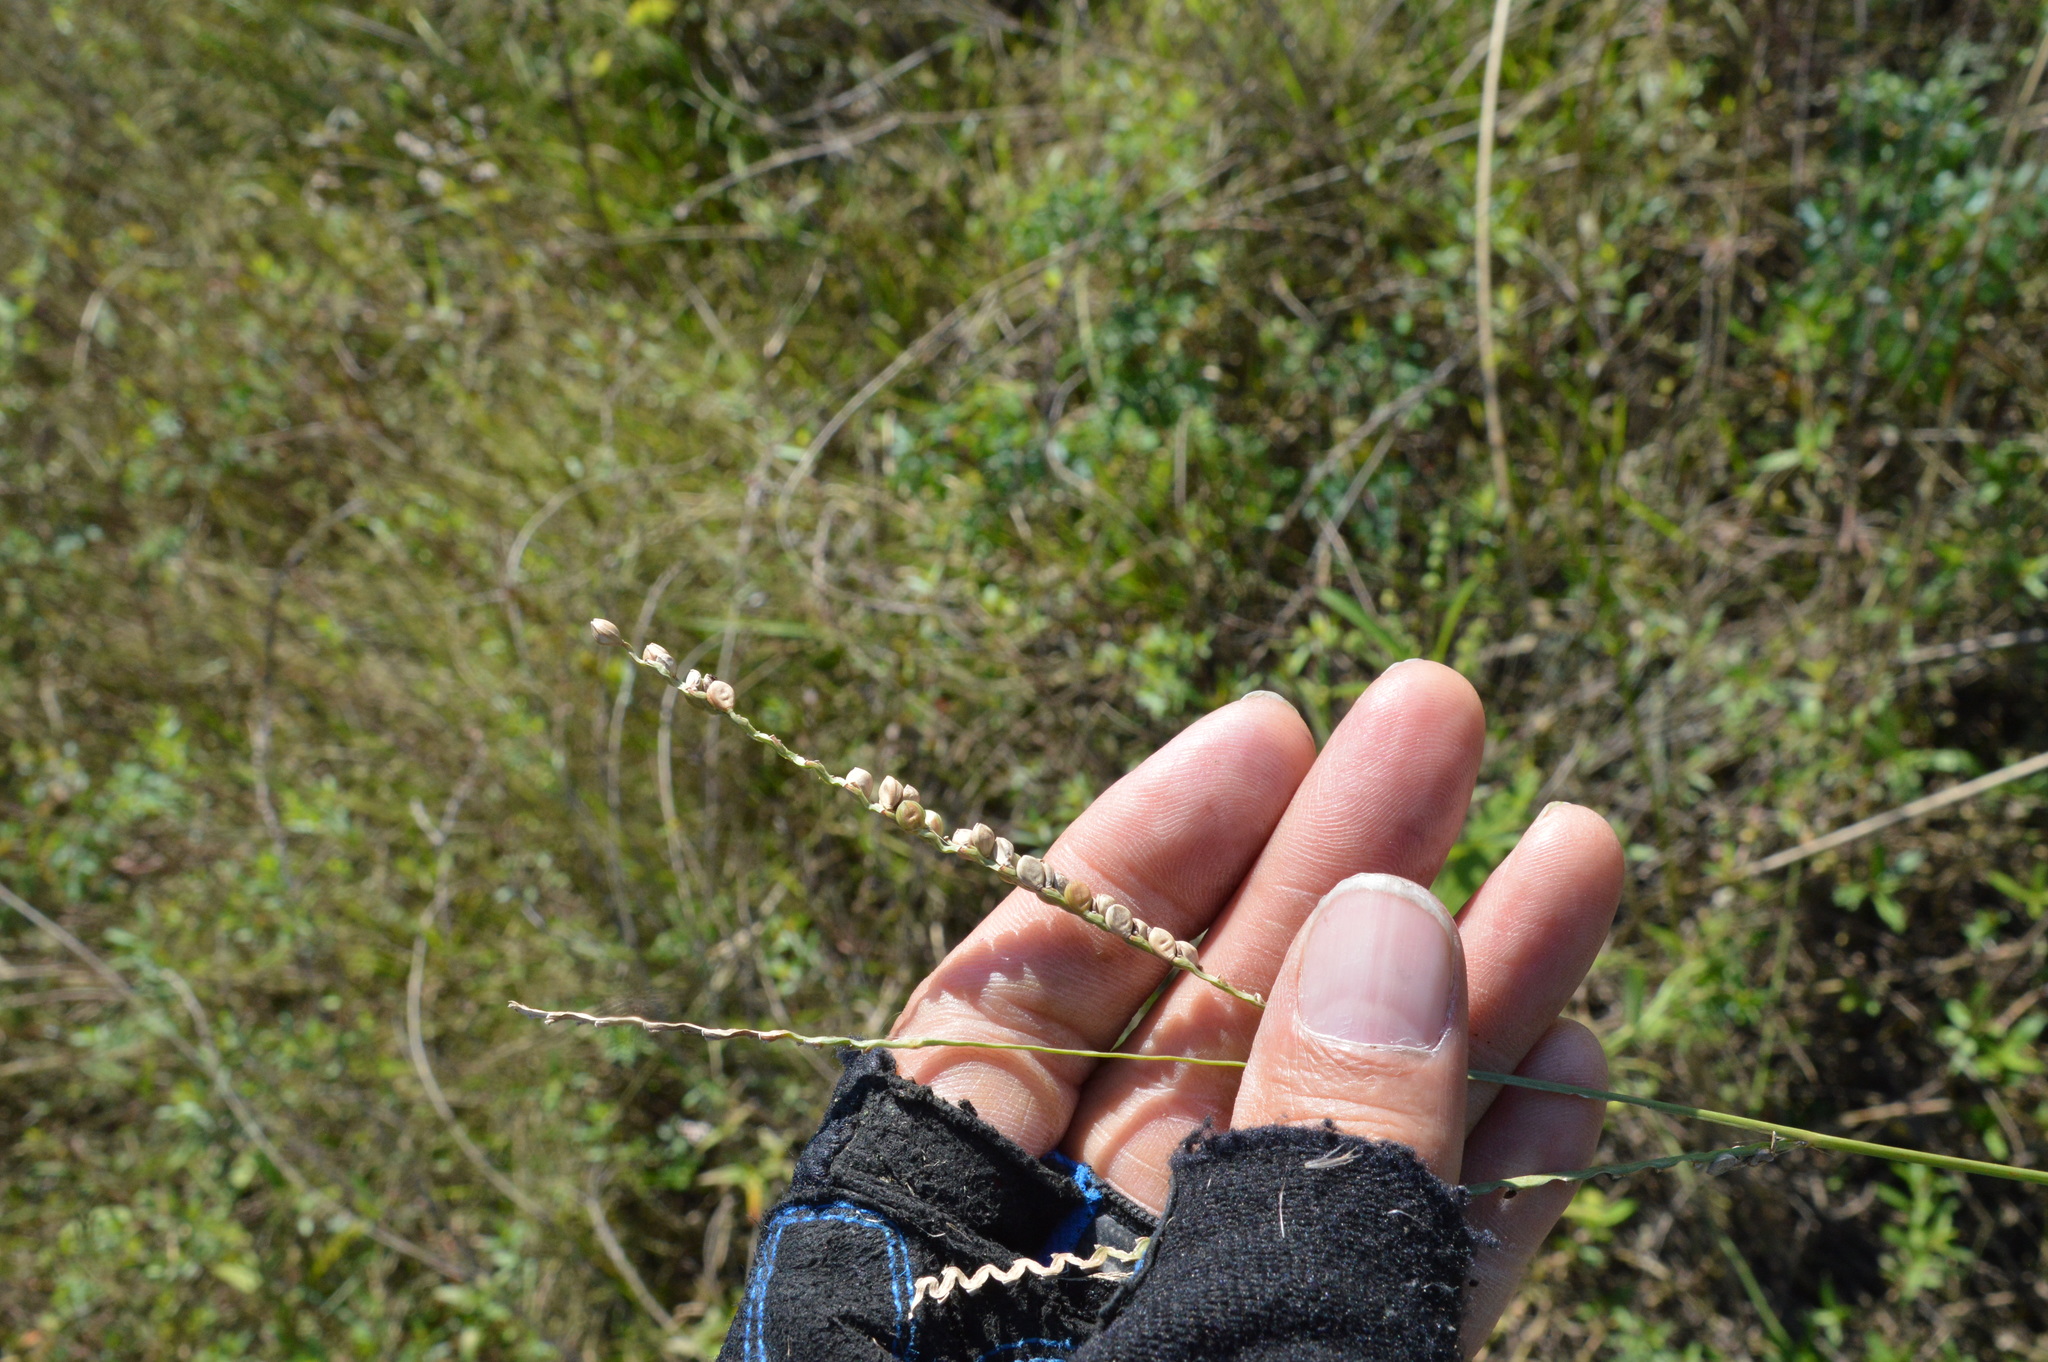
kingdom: Plantae
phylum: Tracheophyta
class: Liliopsida
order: Poales
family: Poaceae
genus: Paspalum
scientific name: Paspalum floridanum
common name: Florida paspalum
